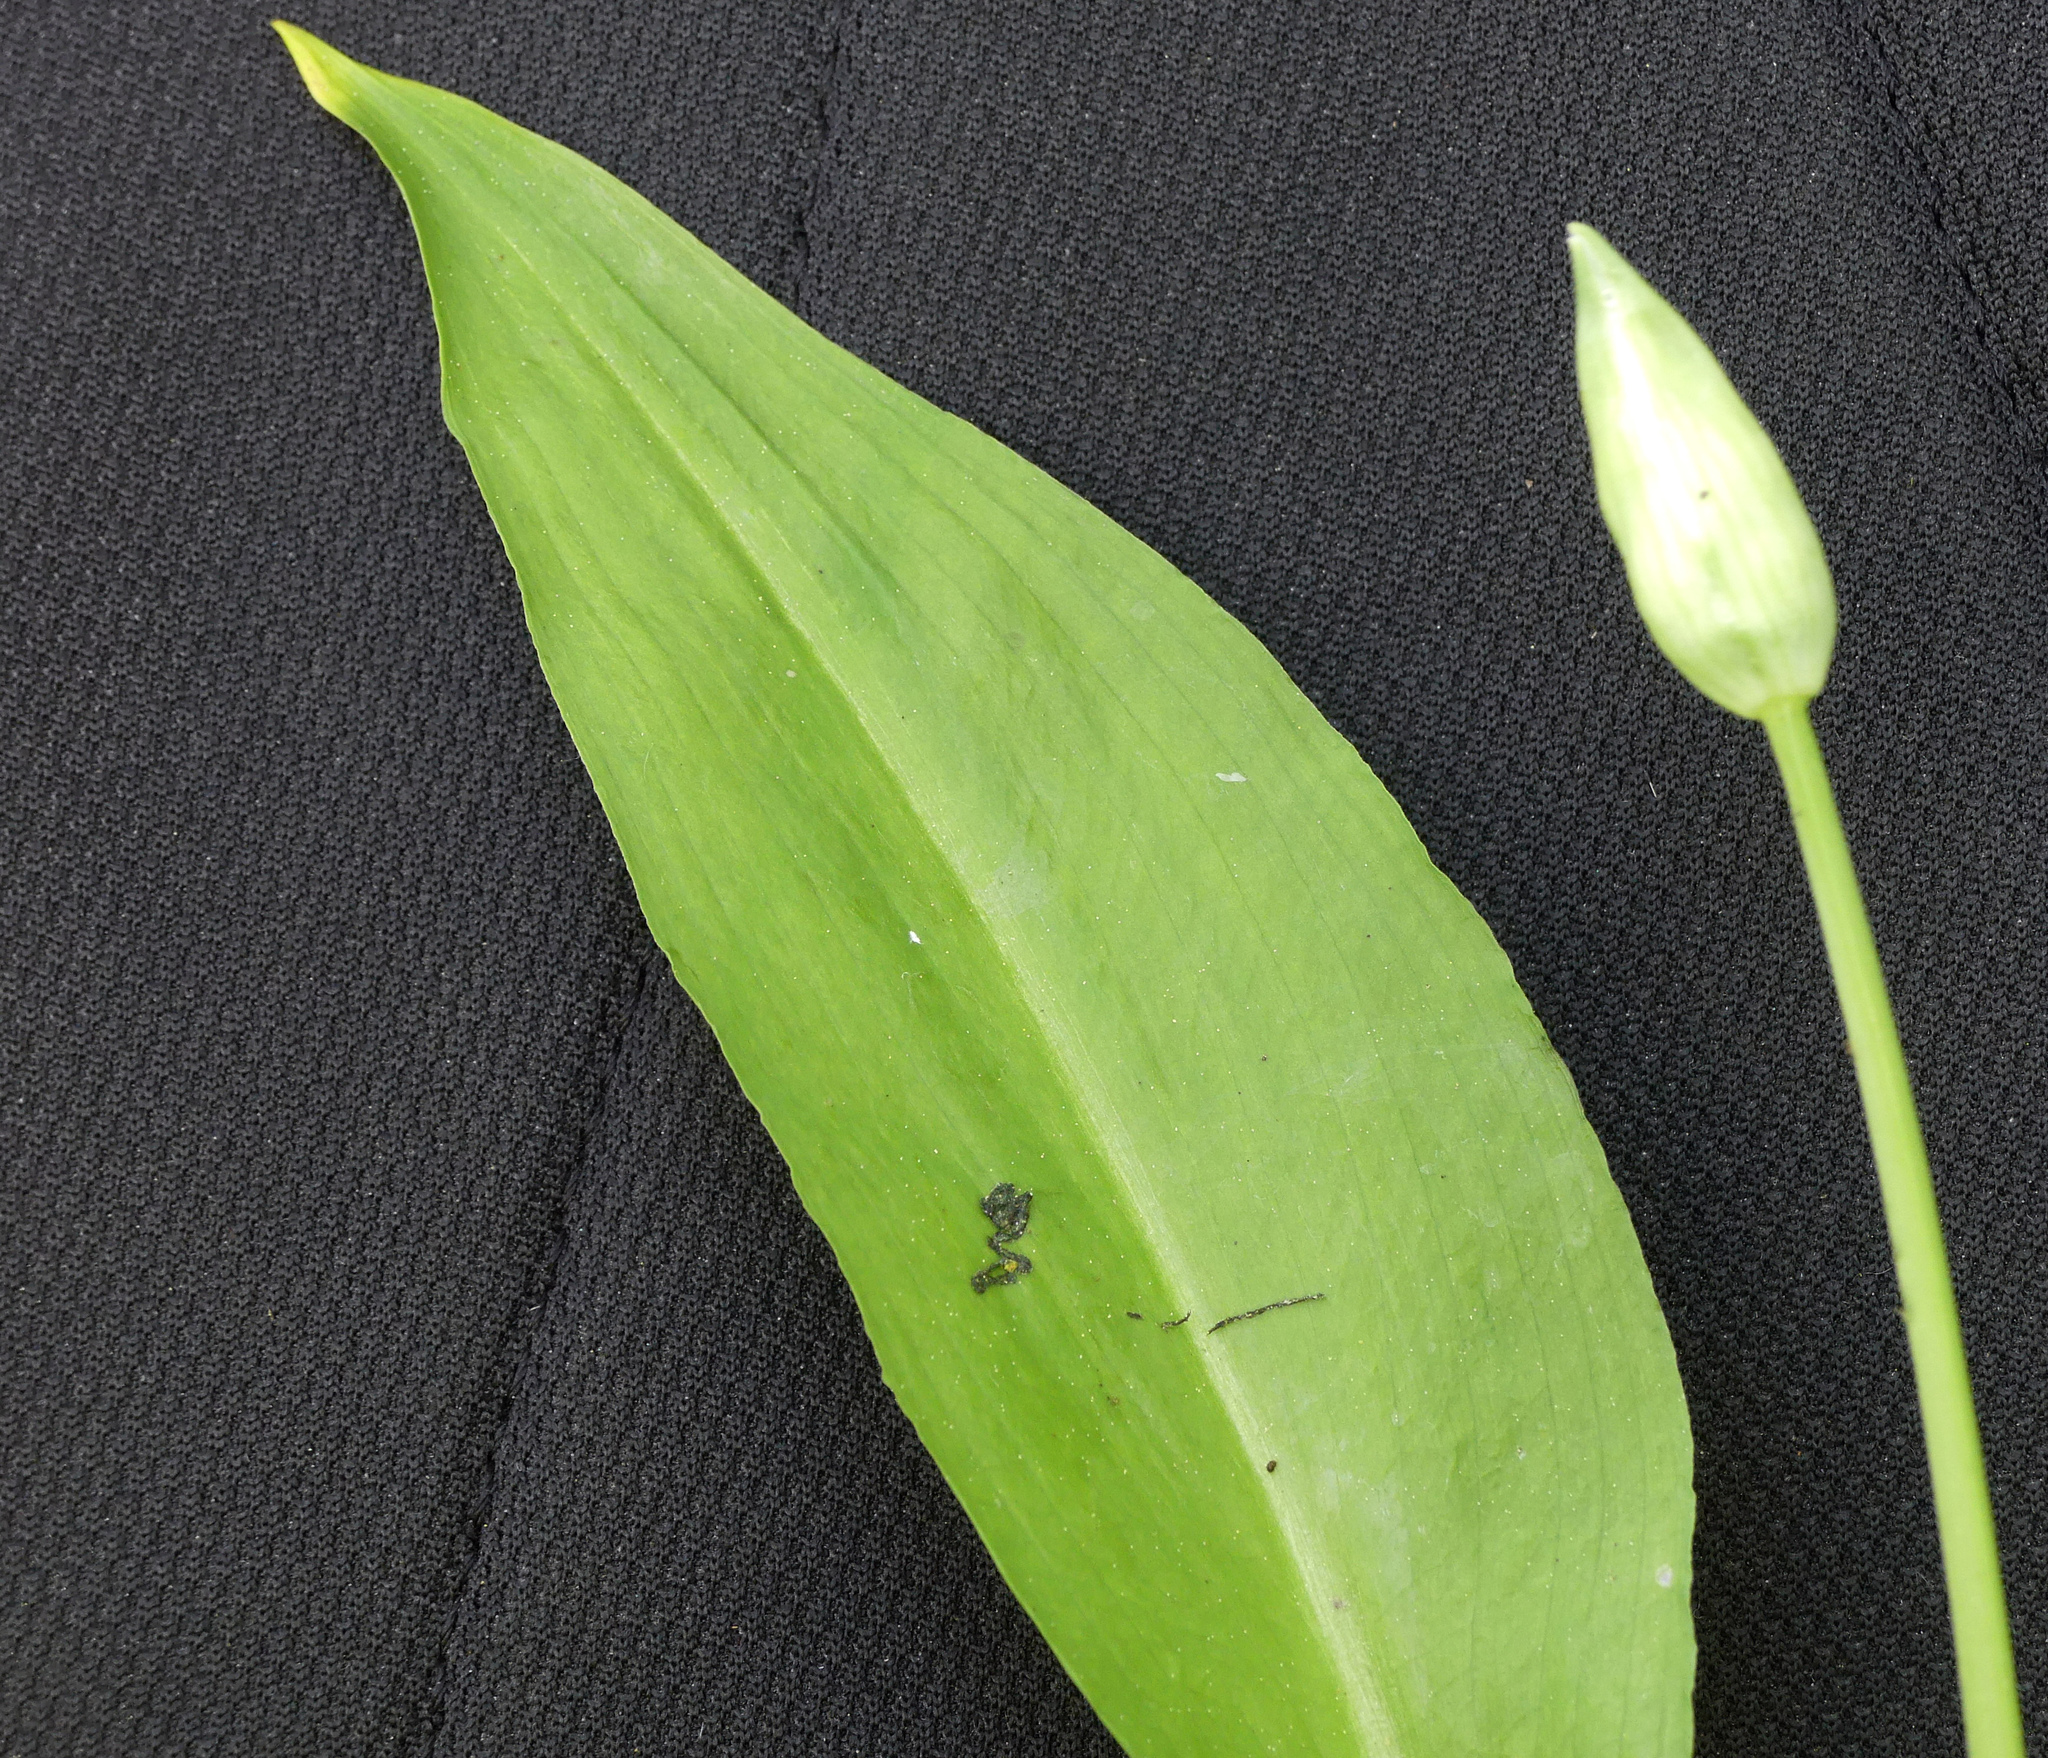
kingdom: Plantae
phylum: Tracheophyta
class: Liliopsida
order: Asparagales
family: Amaryllidaceae
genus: Allium
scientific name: Allium ursinum
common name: Ramsons
